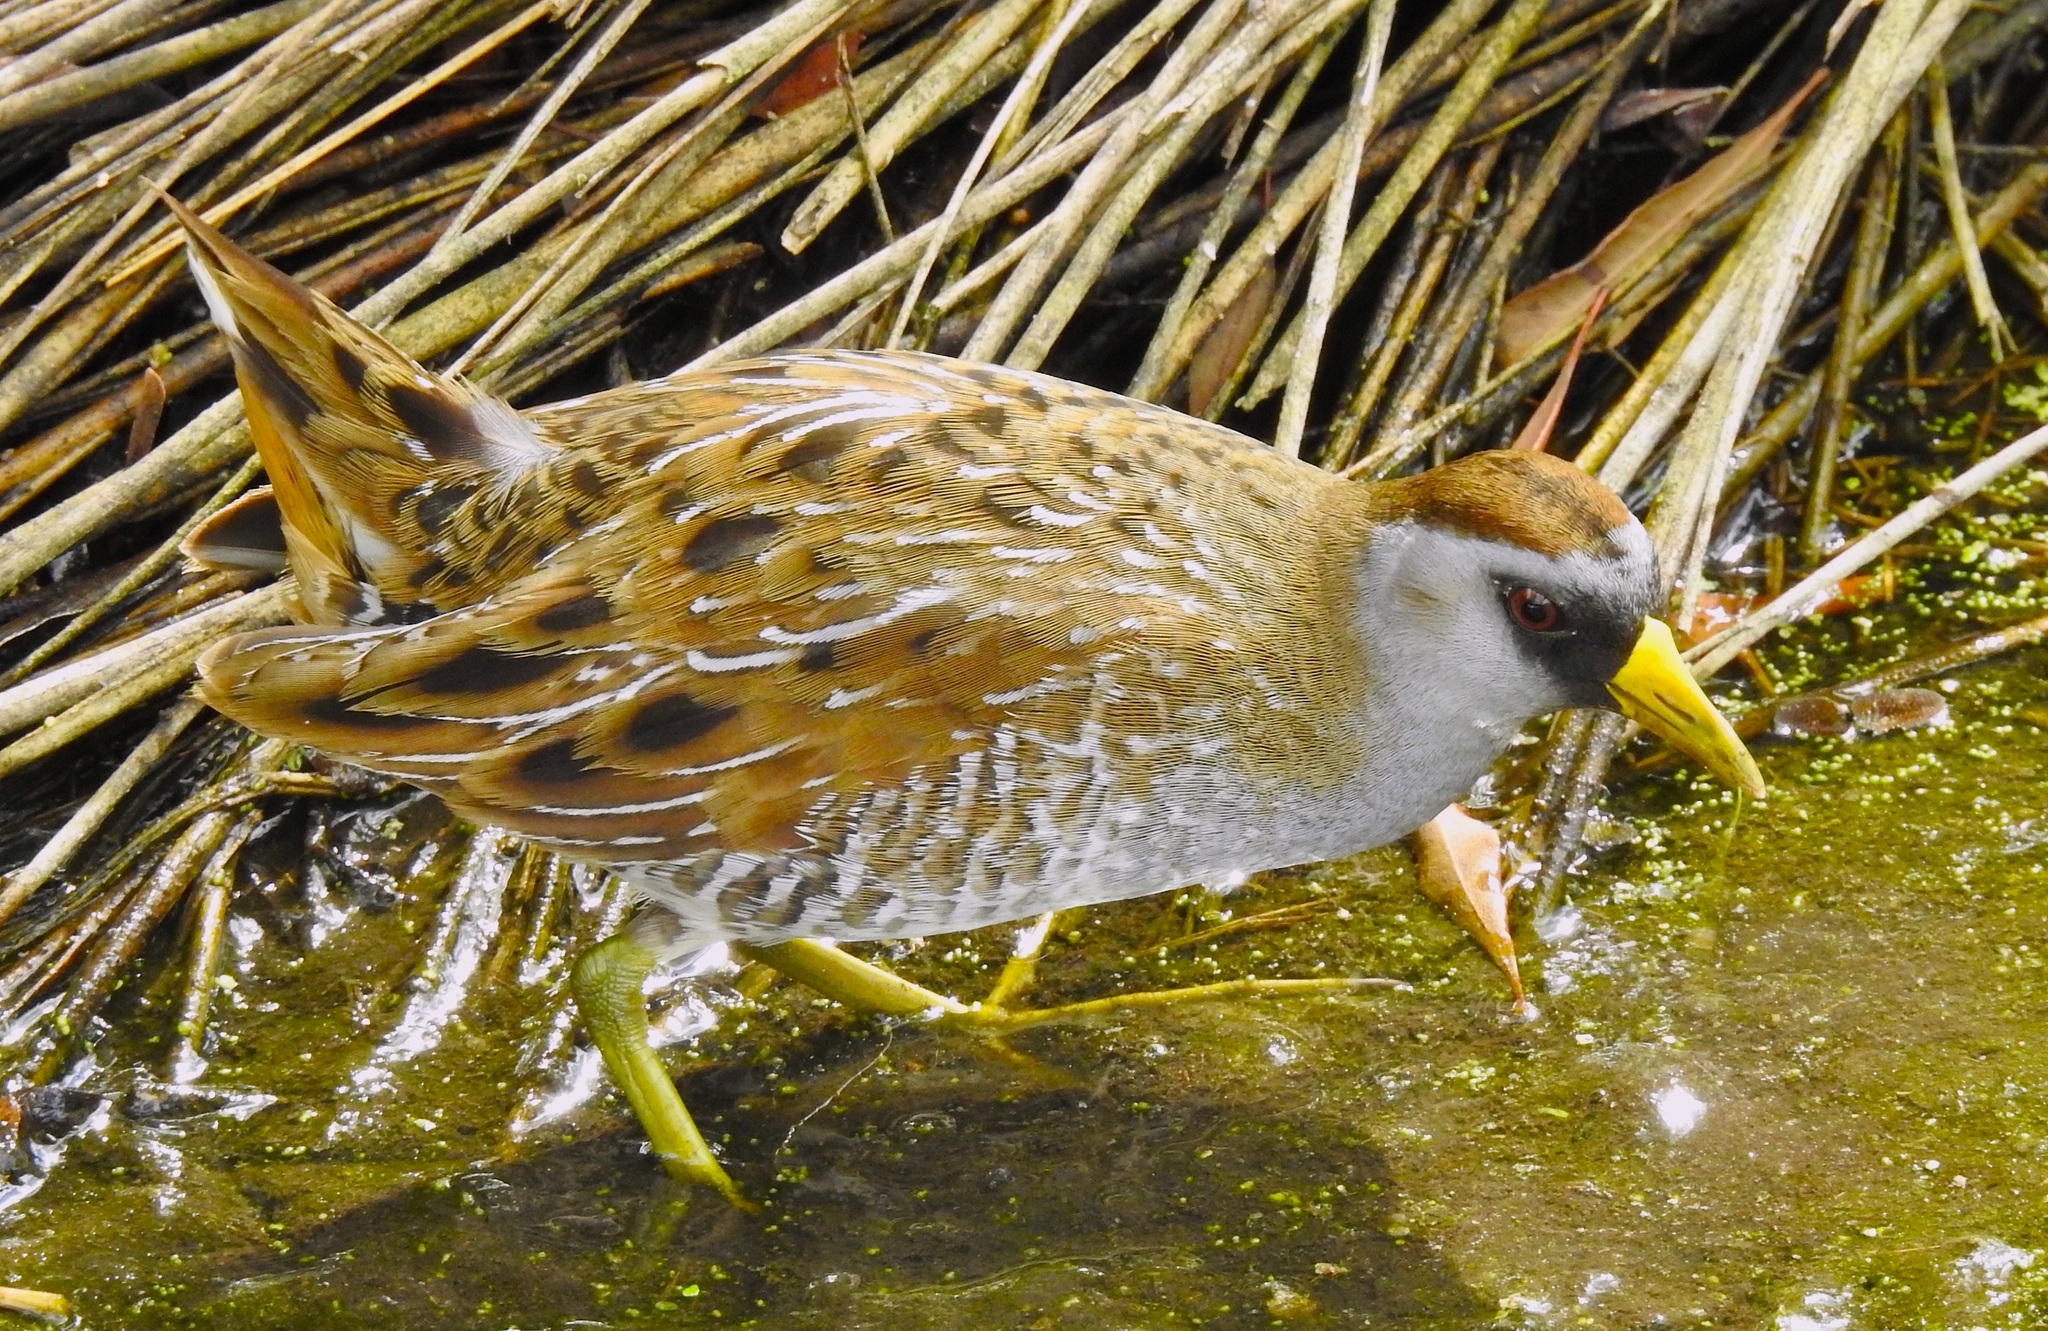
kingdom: Animalia
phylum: Chordata
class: Aves
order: Gruiformes
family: Rallidae
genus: Porzana
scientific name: Porzana carolina
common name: Sora
